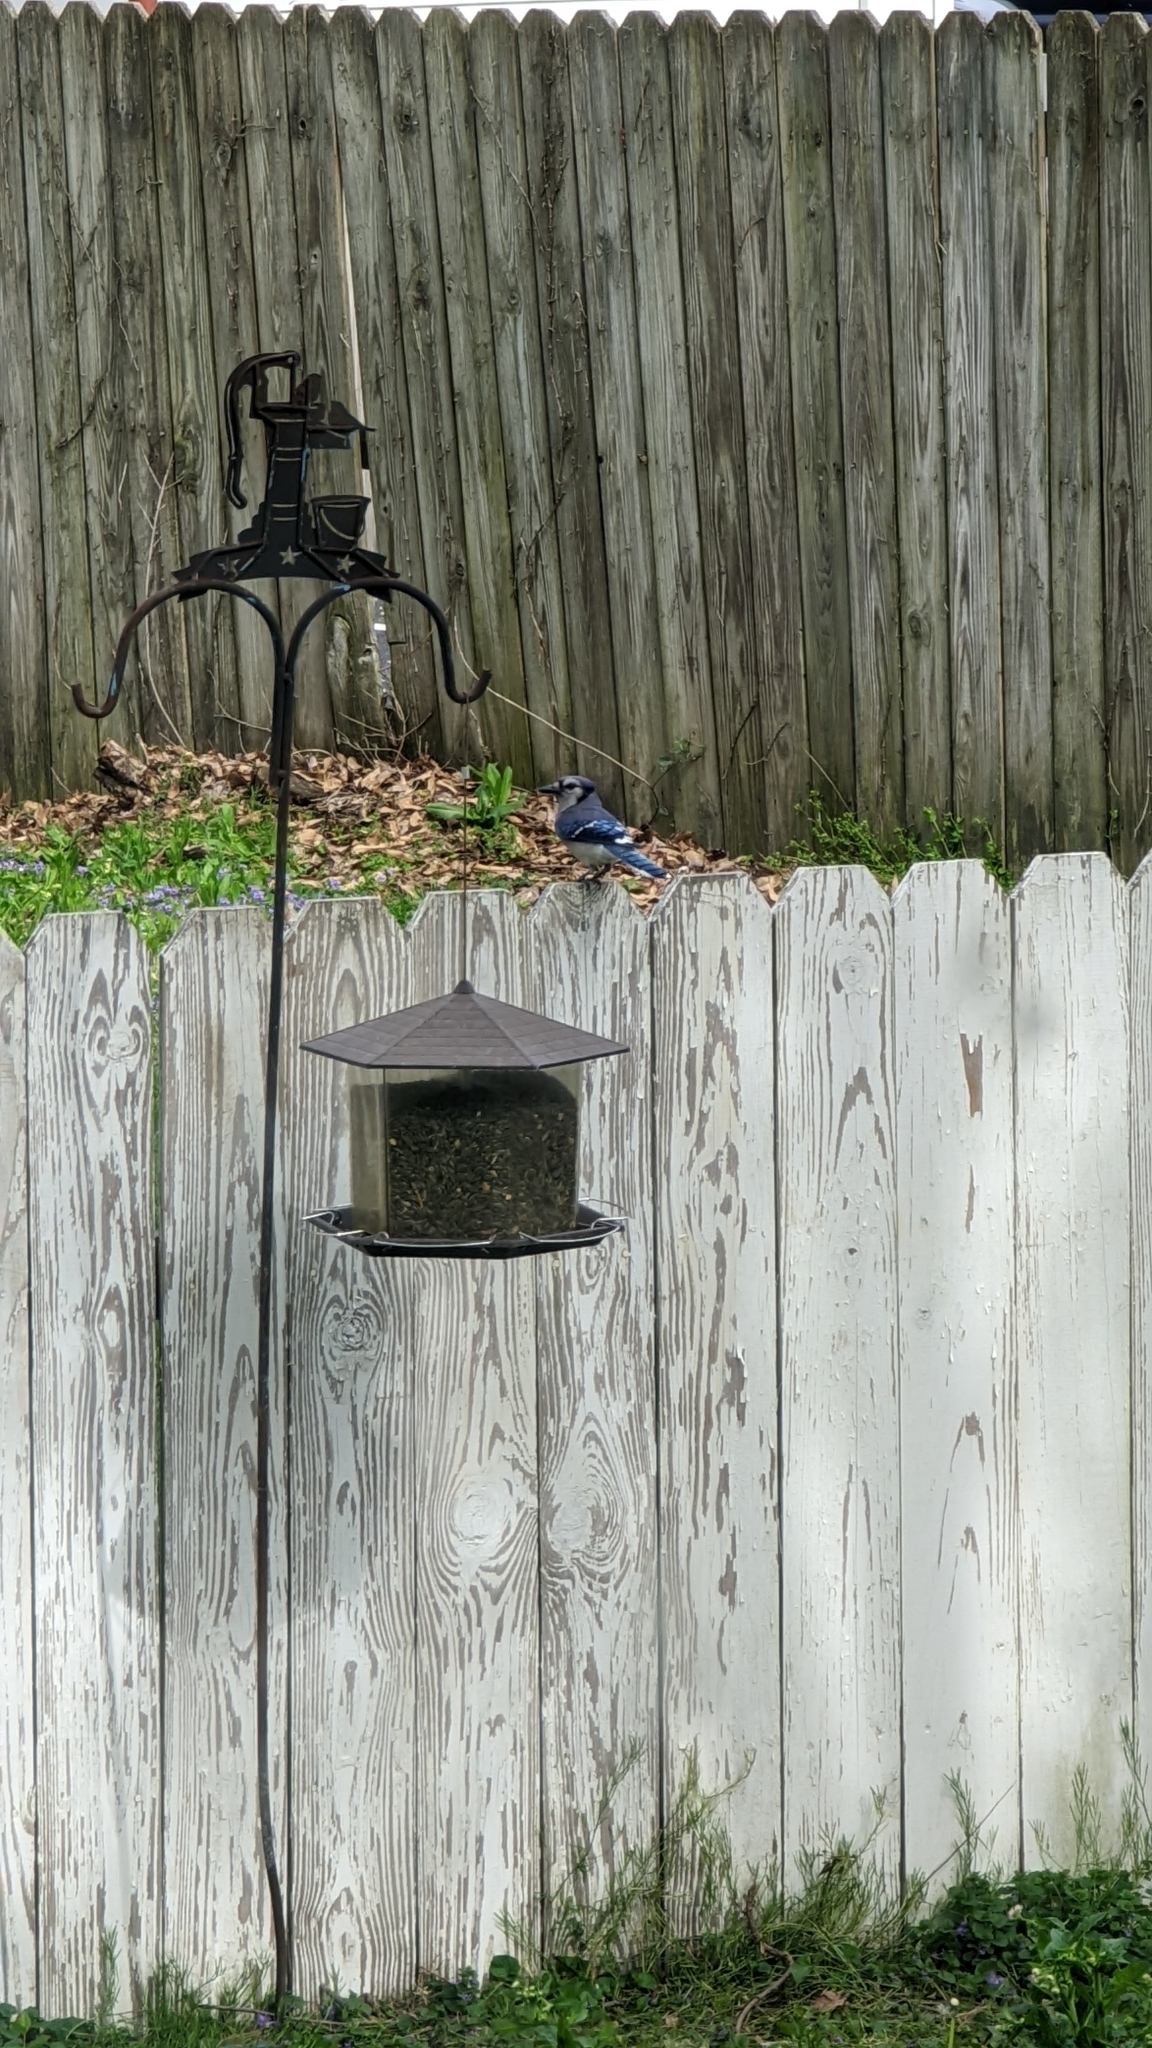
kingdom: Animalia
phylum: Chordata
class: Aves
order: Passeriformes
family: Corvidae
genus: Cyanocitta
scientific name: Cyanocitta cristata
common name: Blue jay
